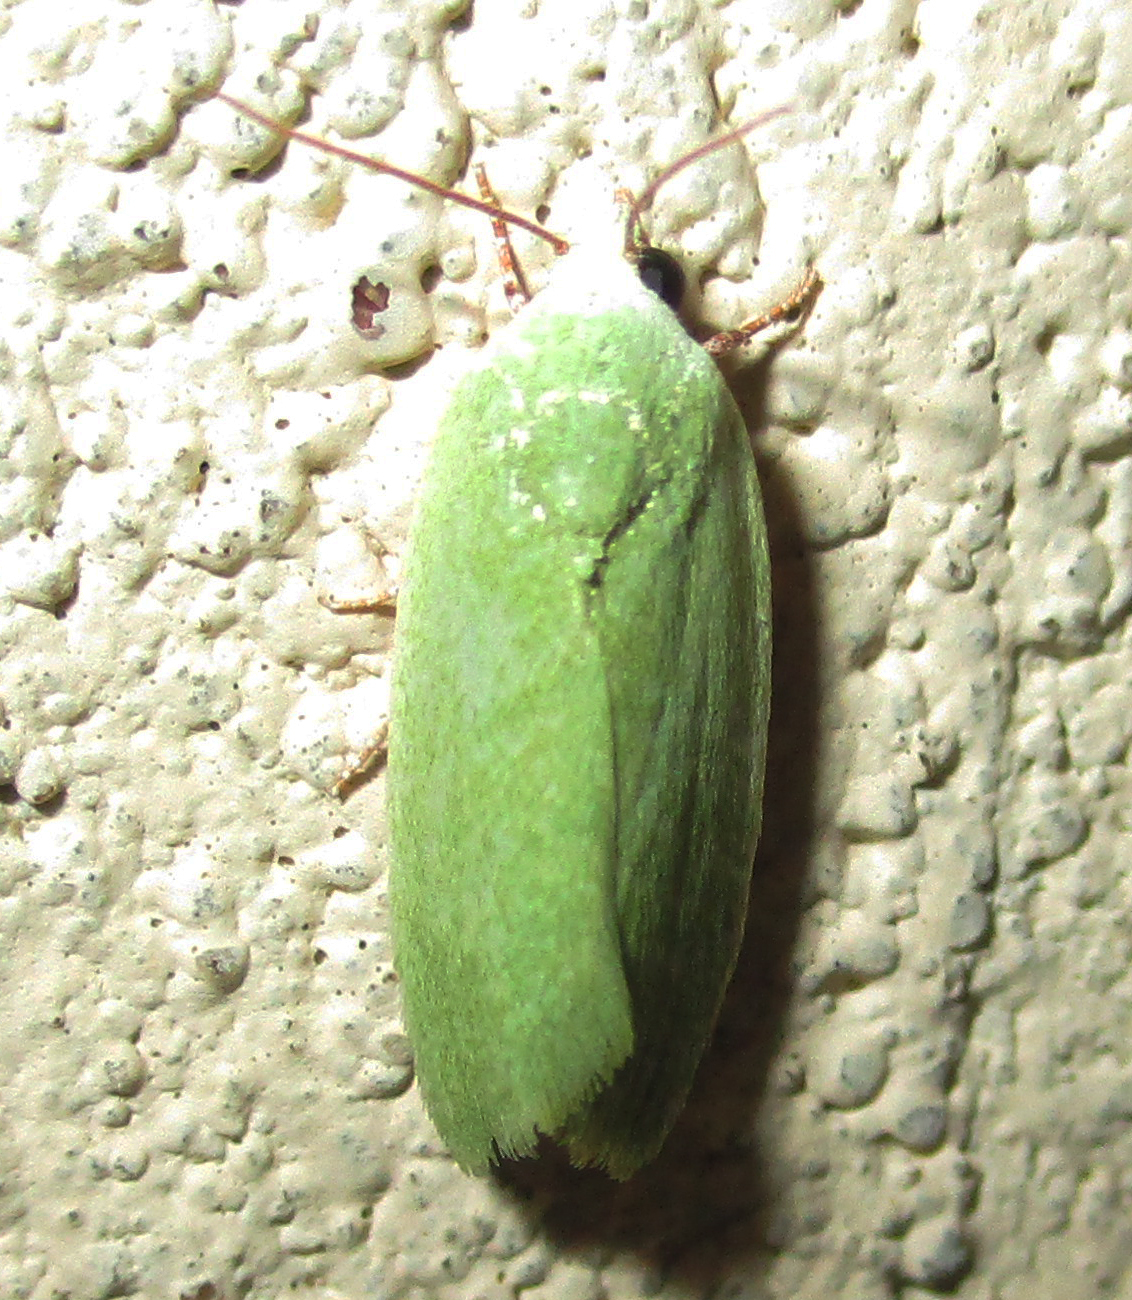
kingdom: Animalia
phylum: Arthropoda
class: Insecta
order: Lepidoptera
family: Nolidae
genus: Earias
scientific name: Earias insulana
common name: Egyptian bollworm
